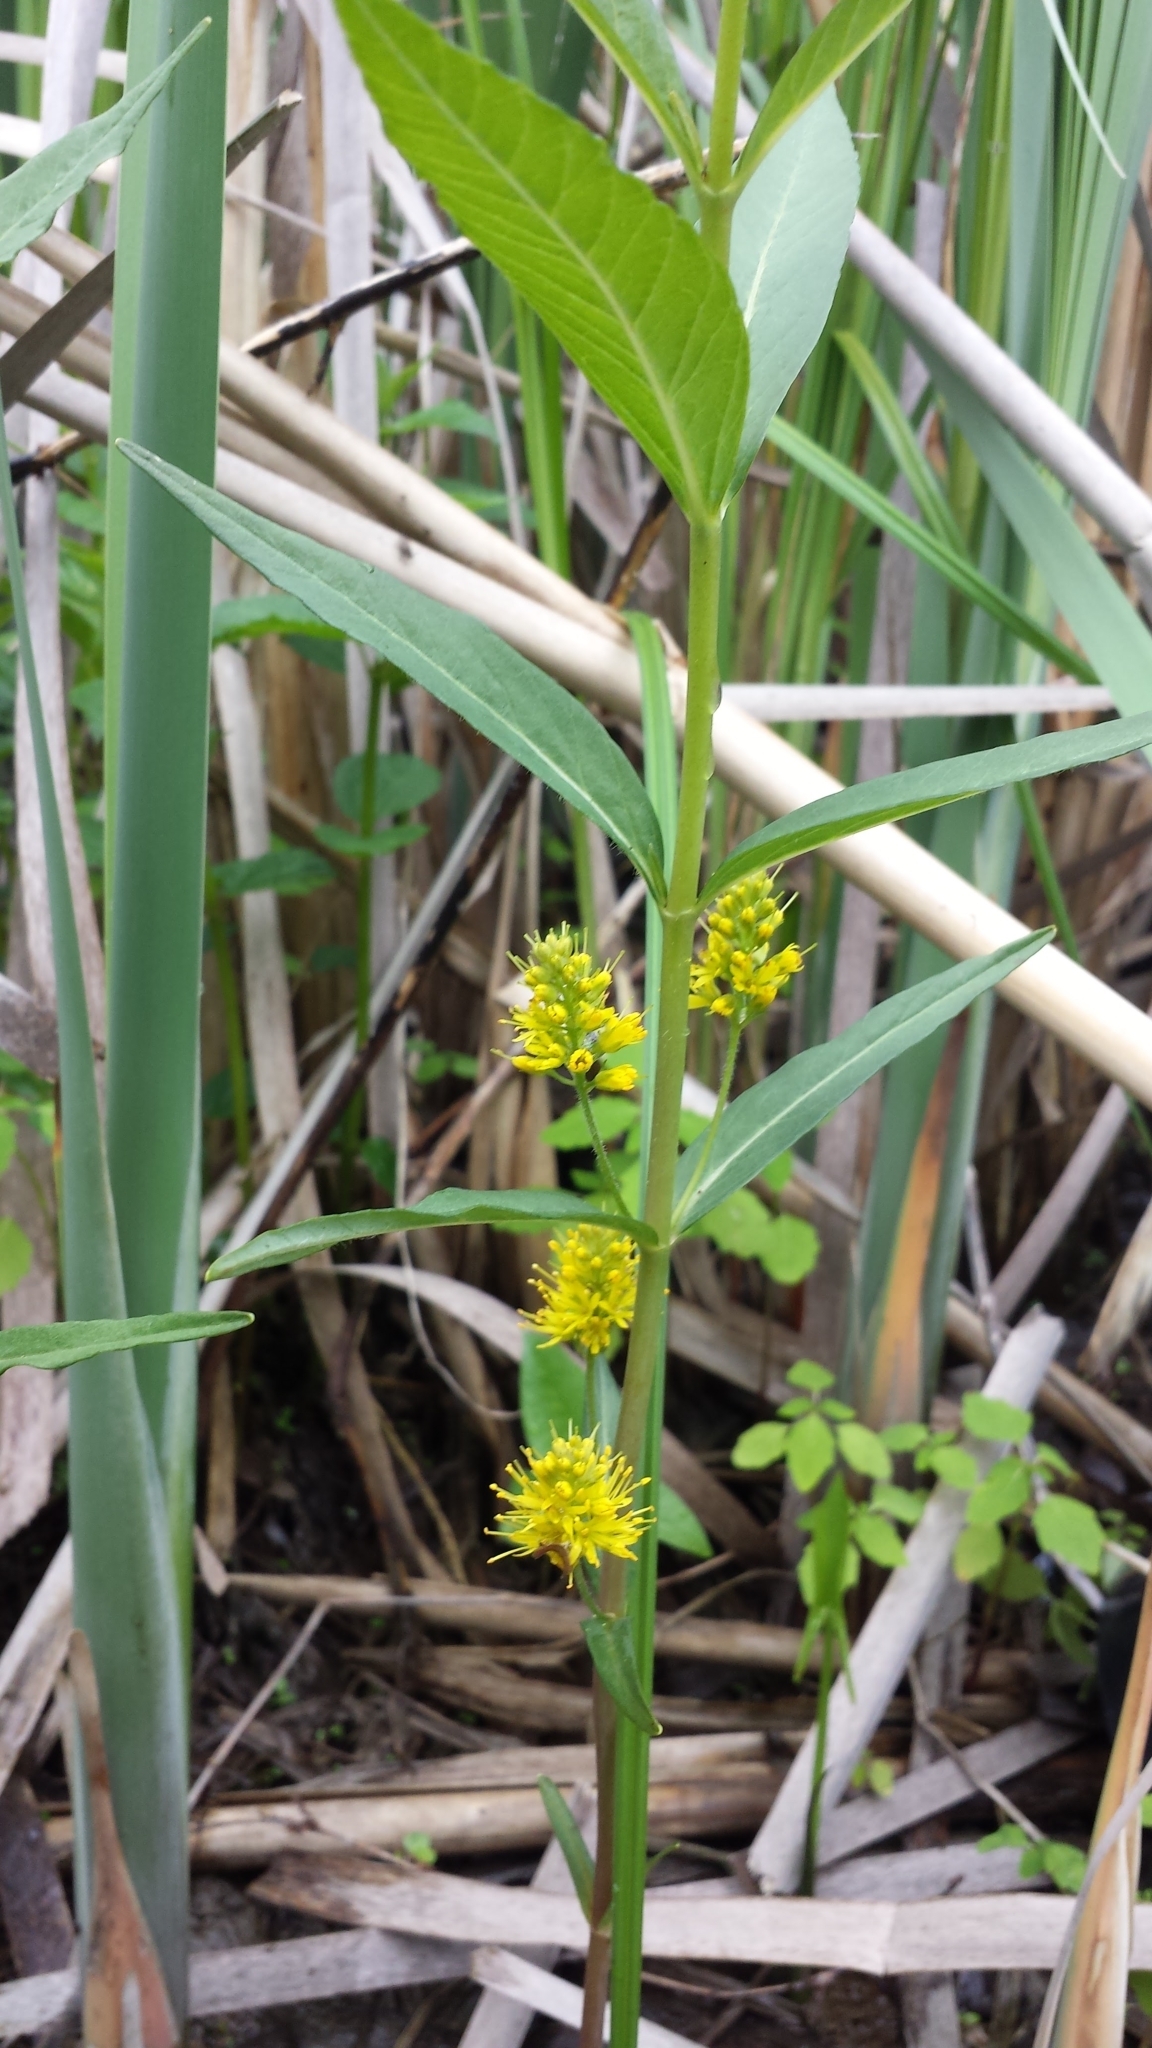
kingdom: Plantae
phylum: Tracheophyta
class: Magnoliopsida
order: Ericales
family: Primulaceae
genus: Lysimachia
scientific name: Lysimachia thyrsiflora
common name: Tufted loosestrife
